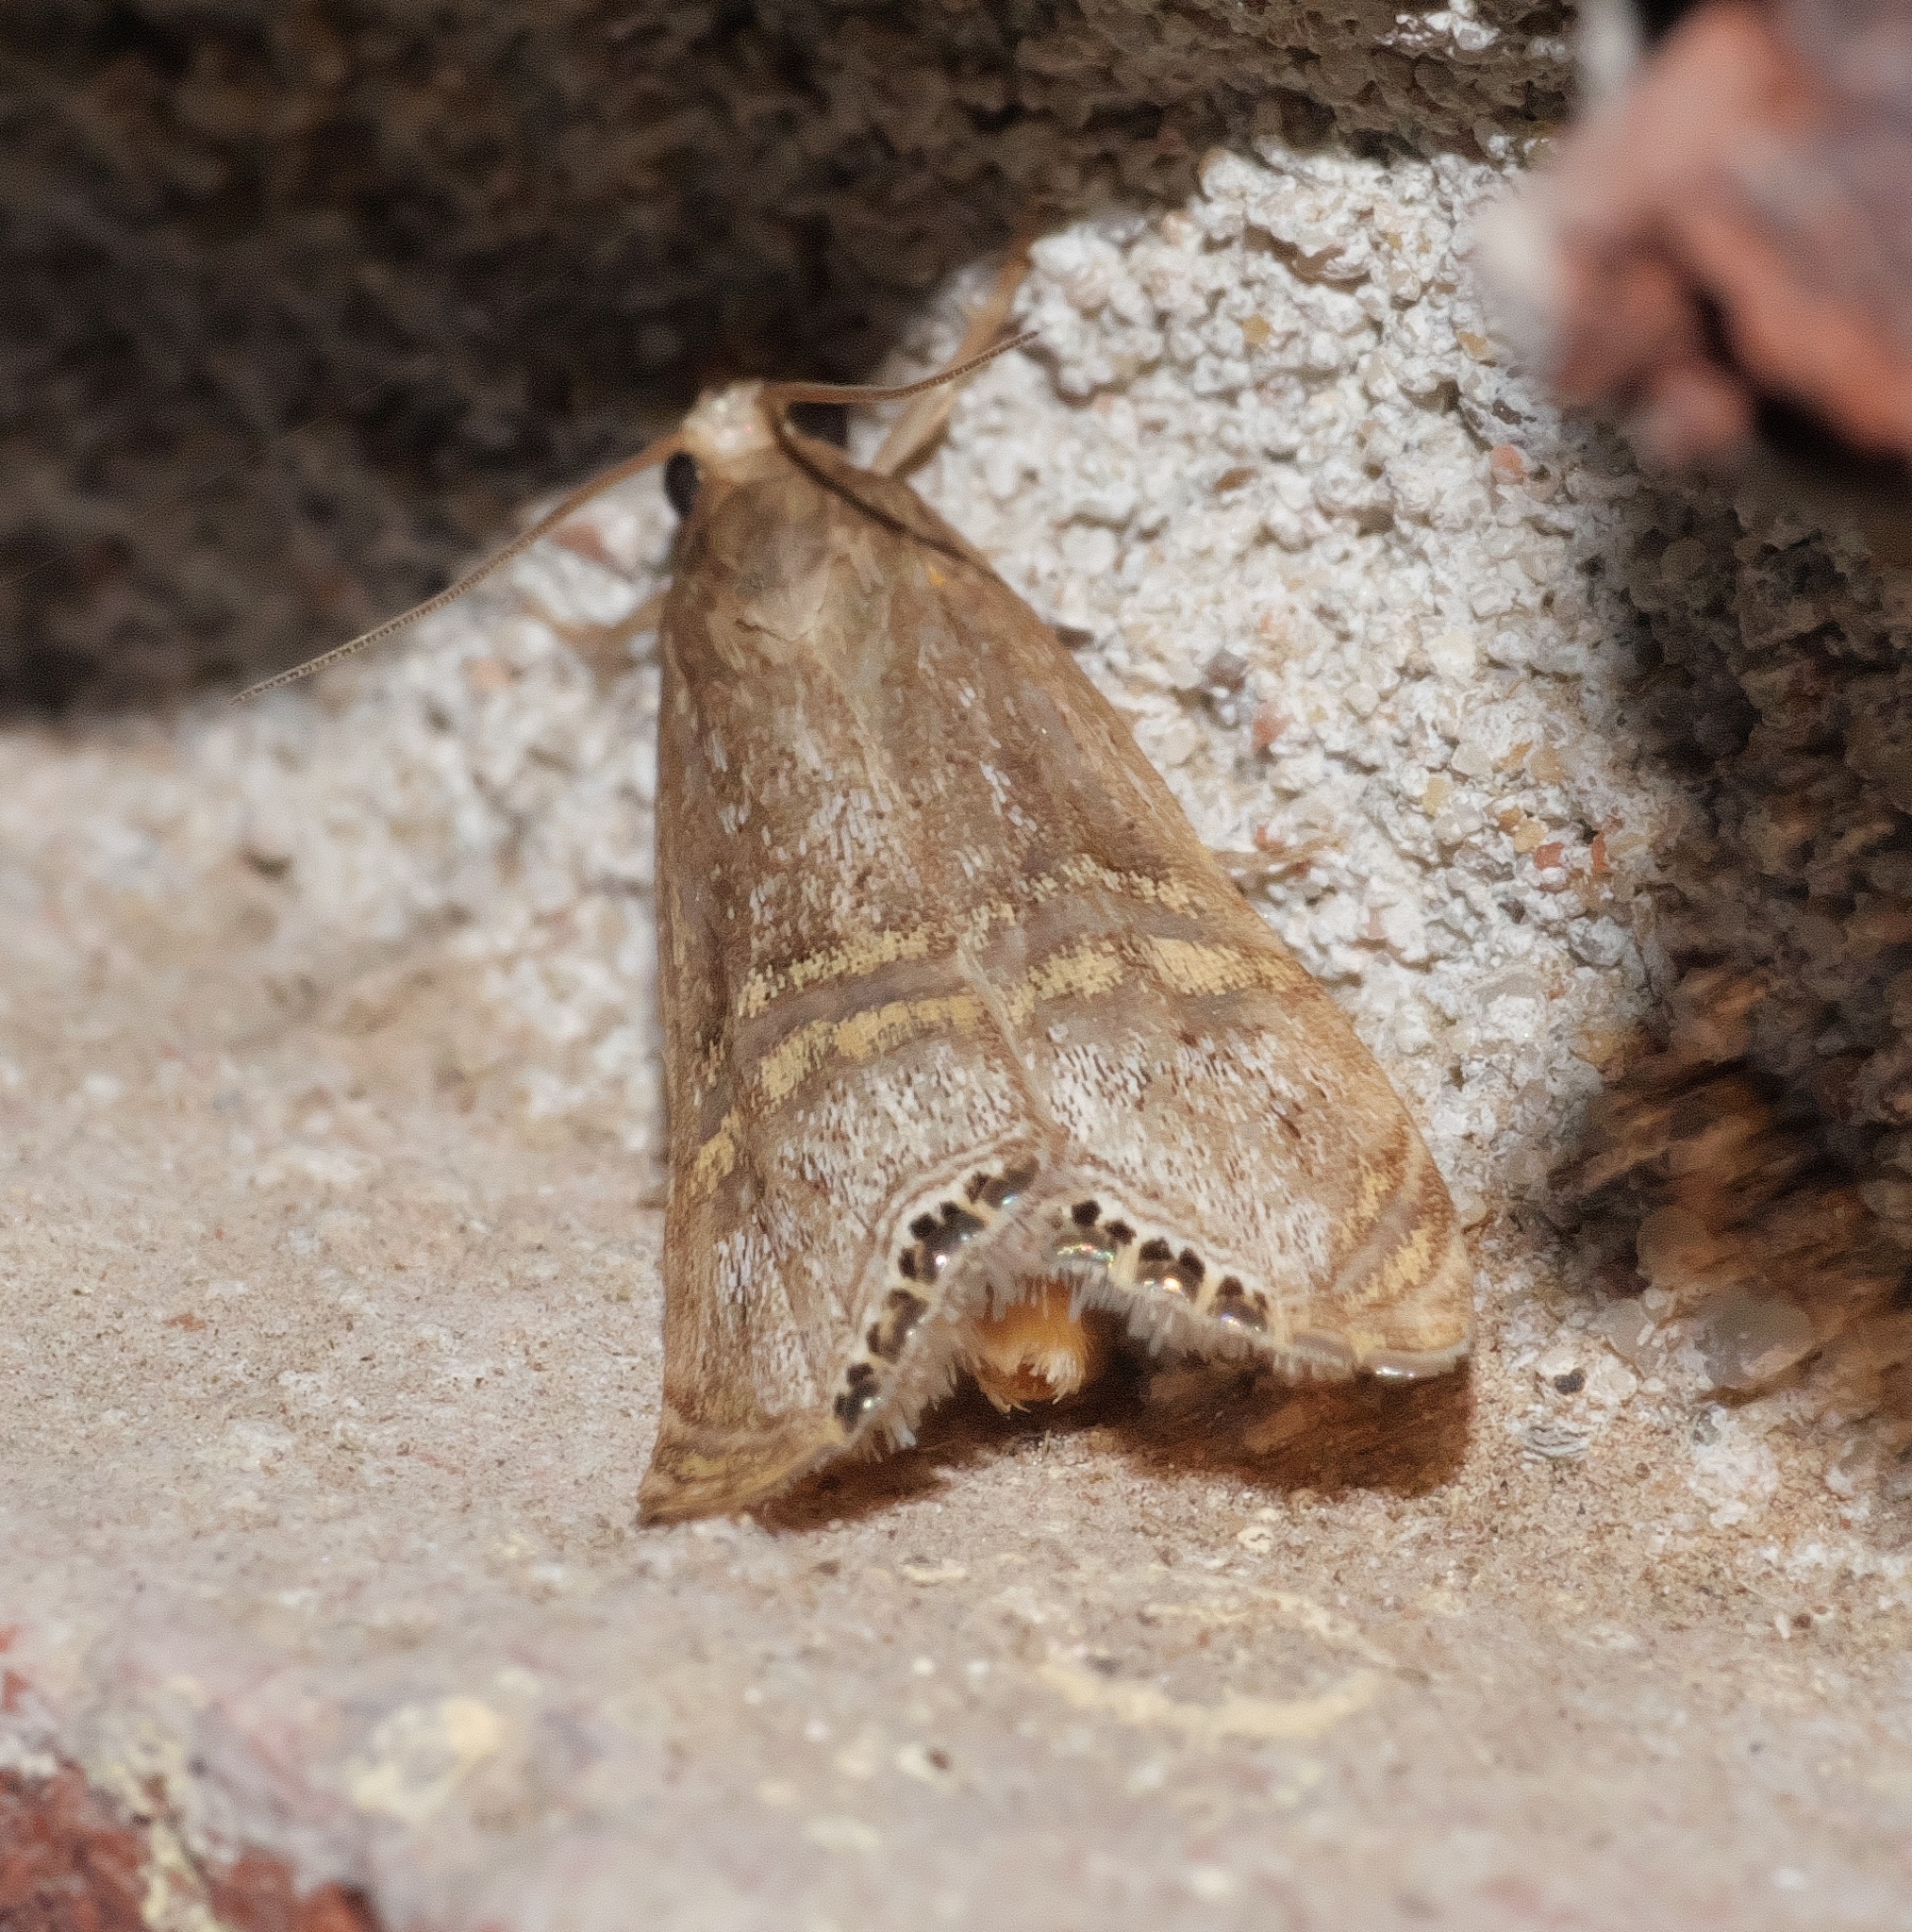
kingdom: Animalia
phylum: Arthropoda
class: Insecta
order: Lepidoptera
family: Crambidae
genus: Euchromius
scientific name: Euchromius ocellea
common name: Necklace veneer moth
